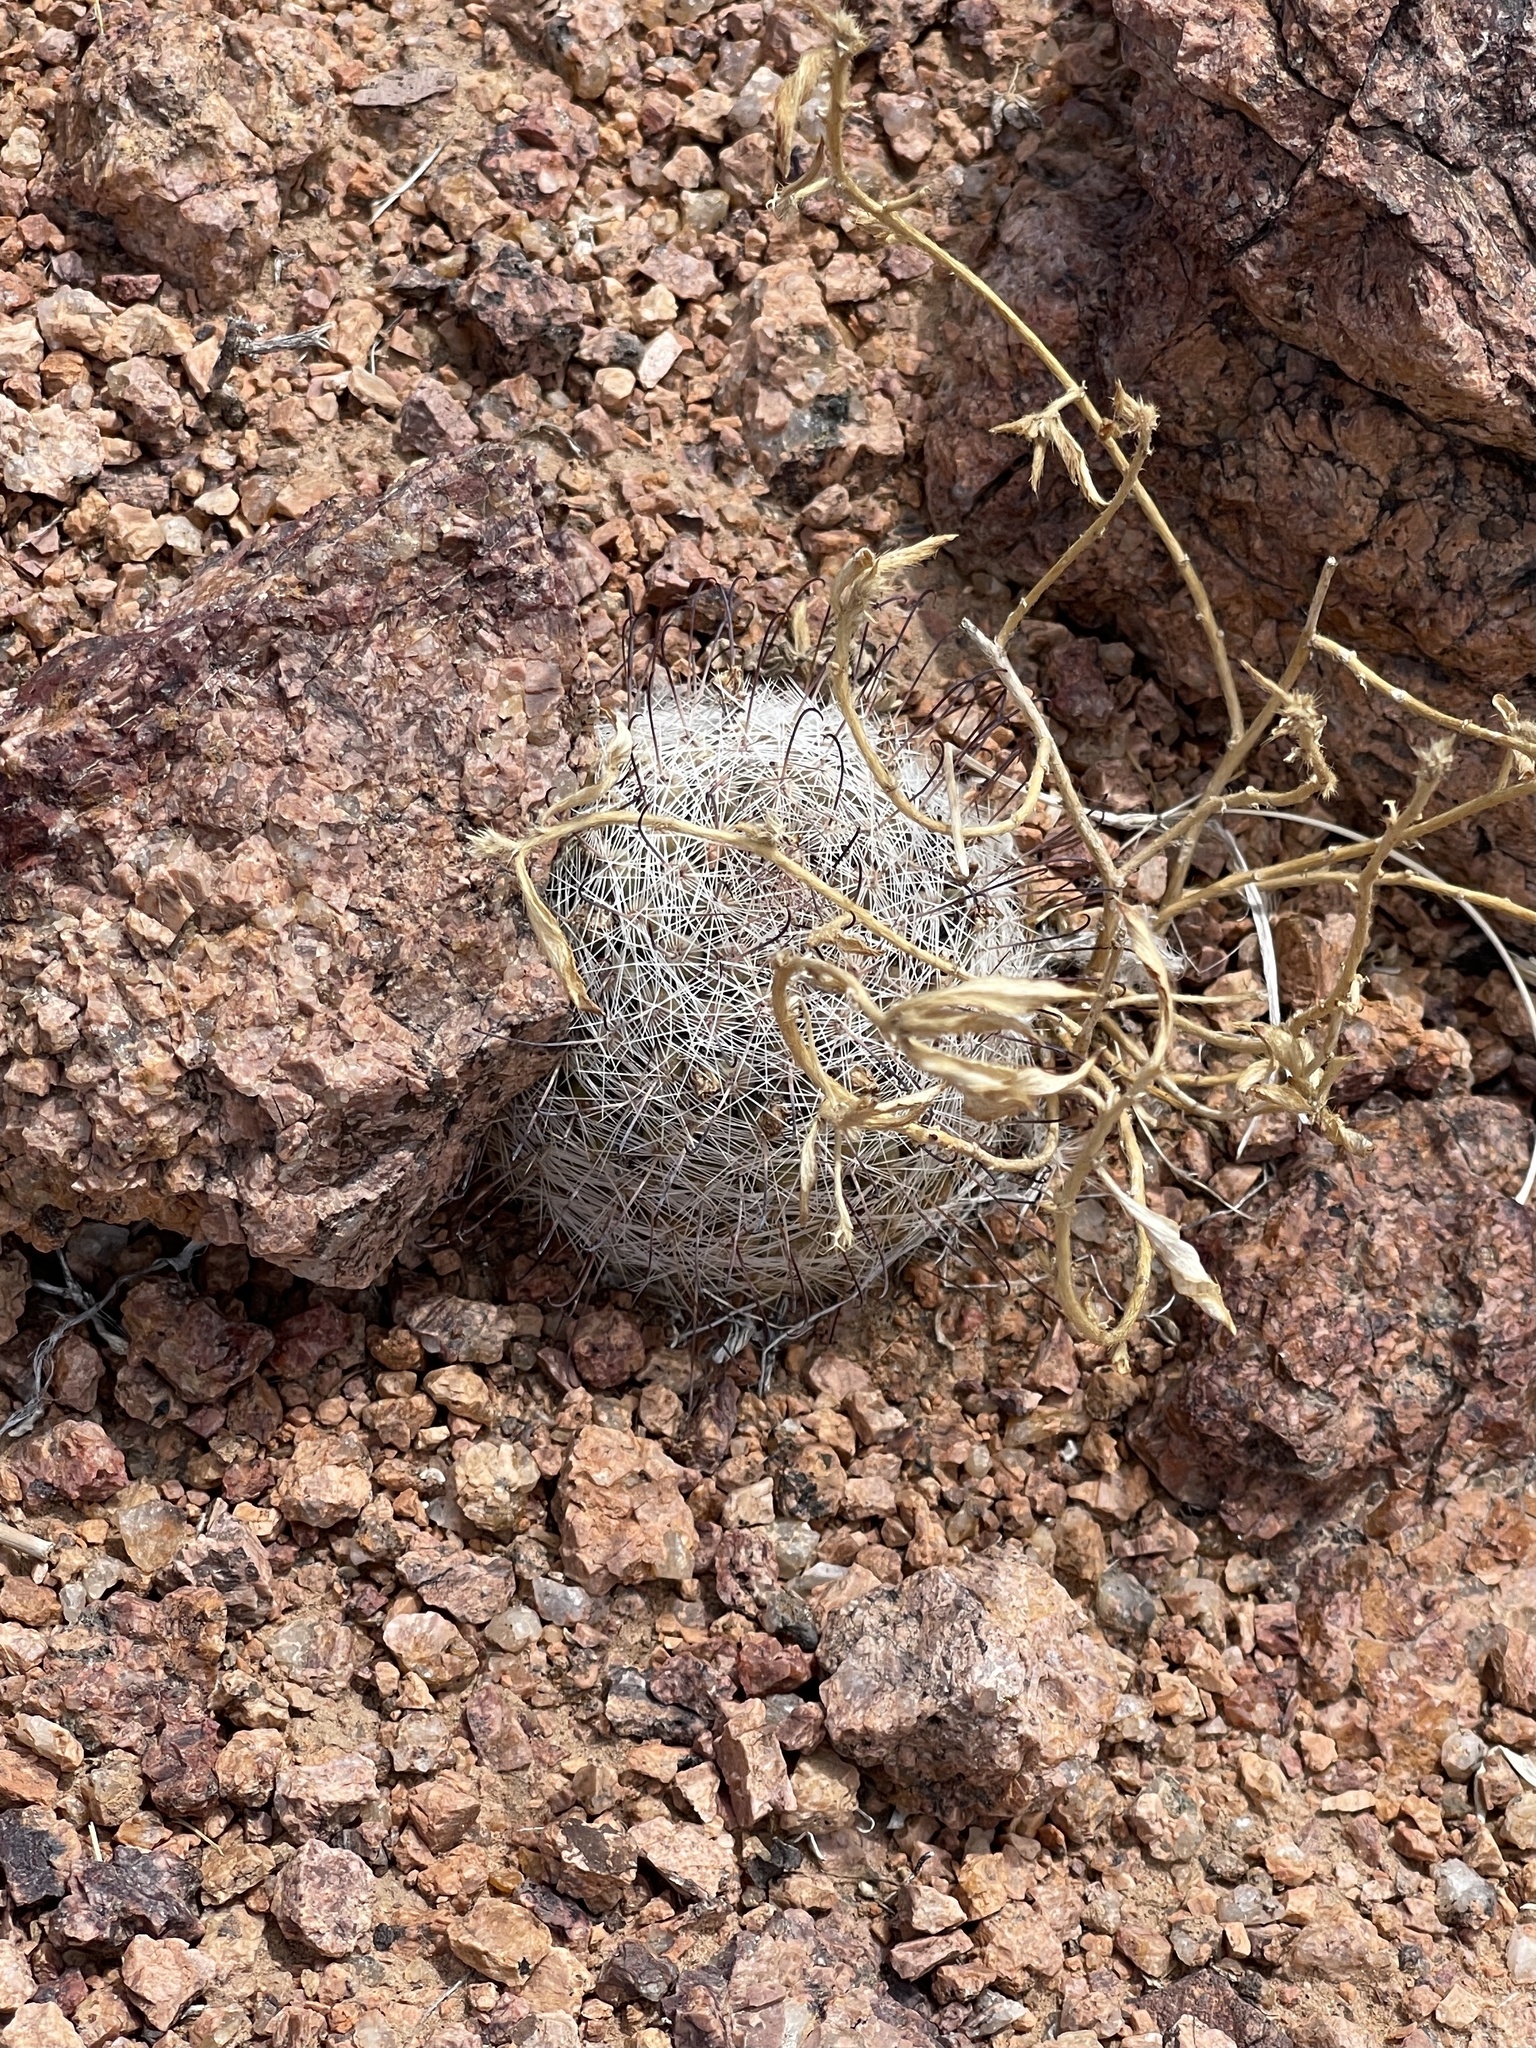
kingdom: Plantae
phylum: Tracheophyta
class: Magnoliopsida
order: Caryophyllales
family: Cactaceae
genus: Cochemiea
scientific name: Cochemiea grahamii
